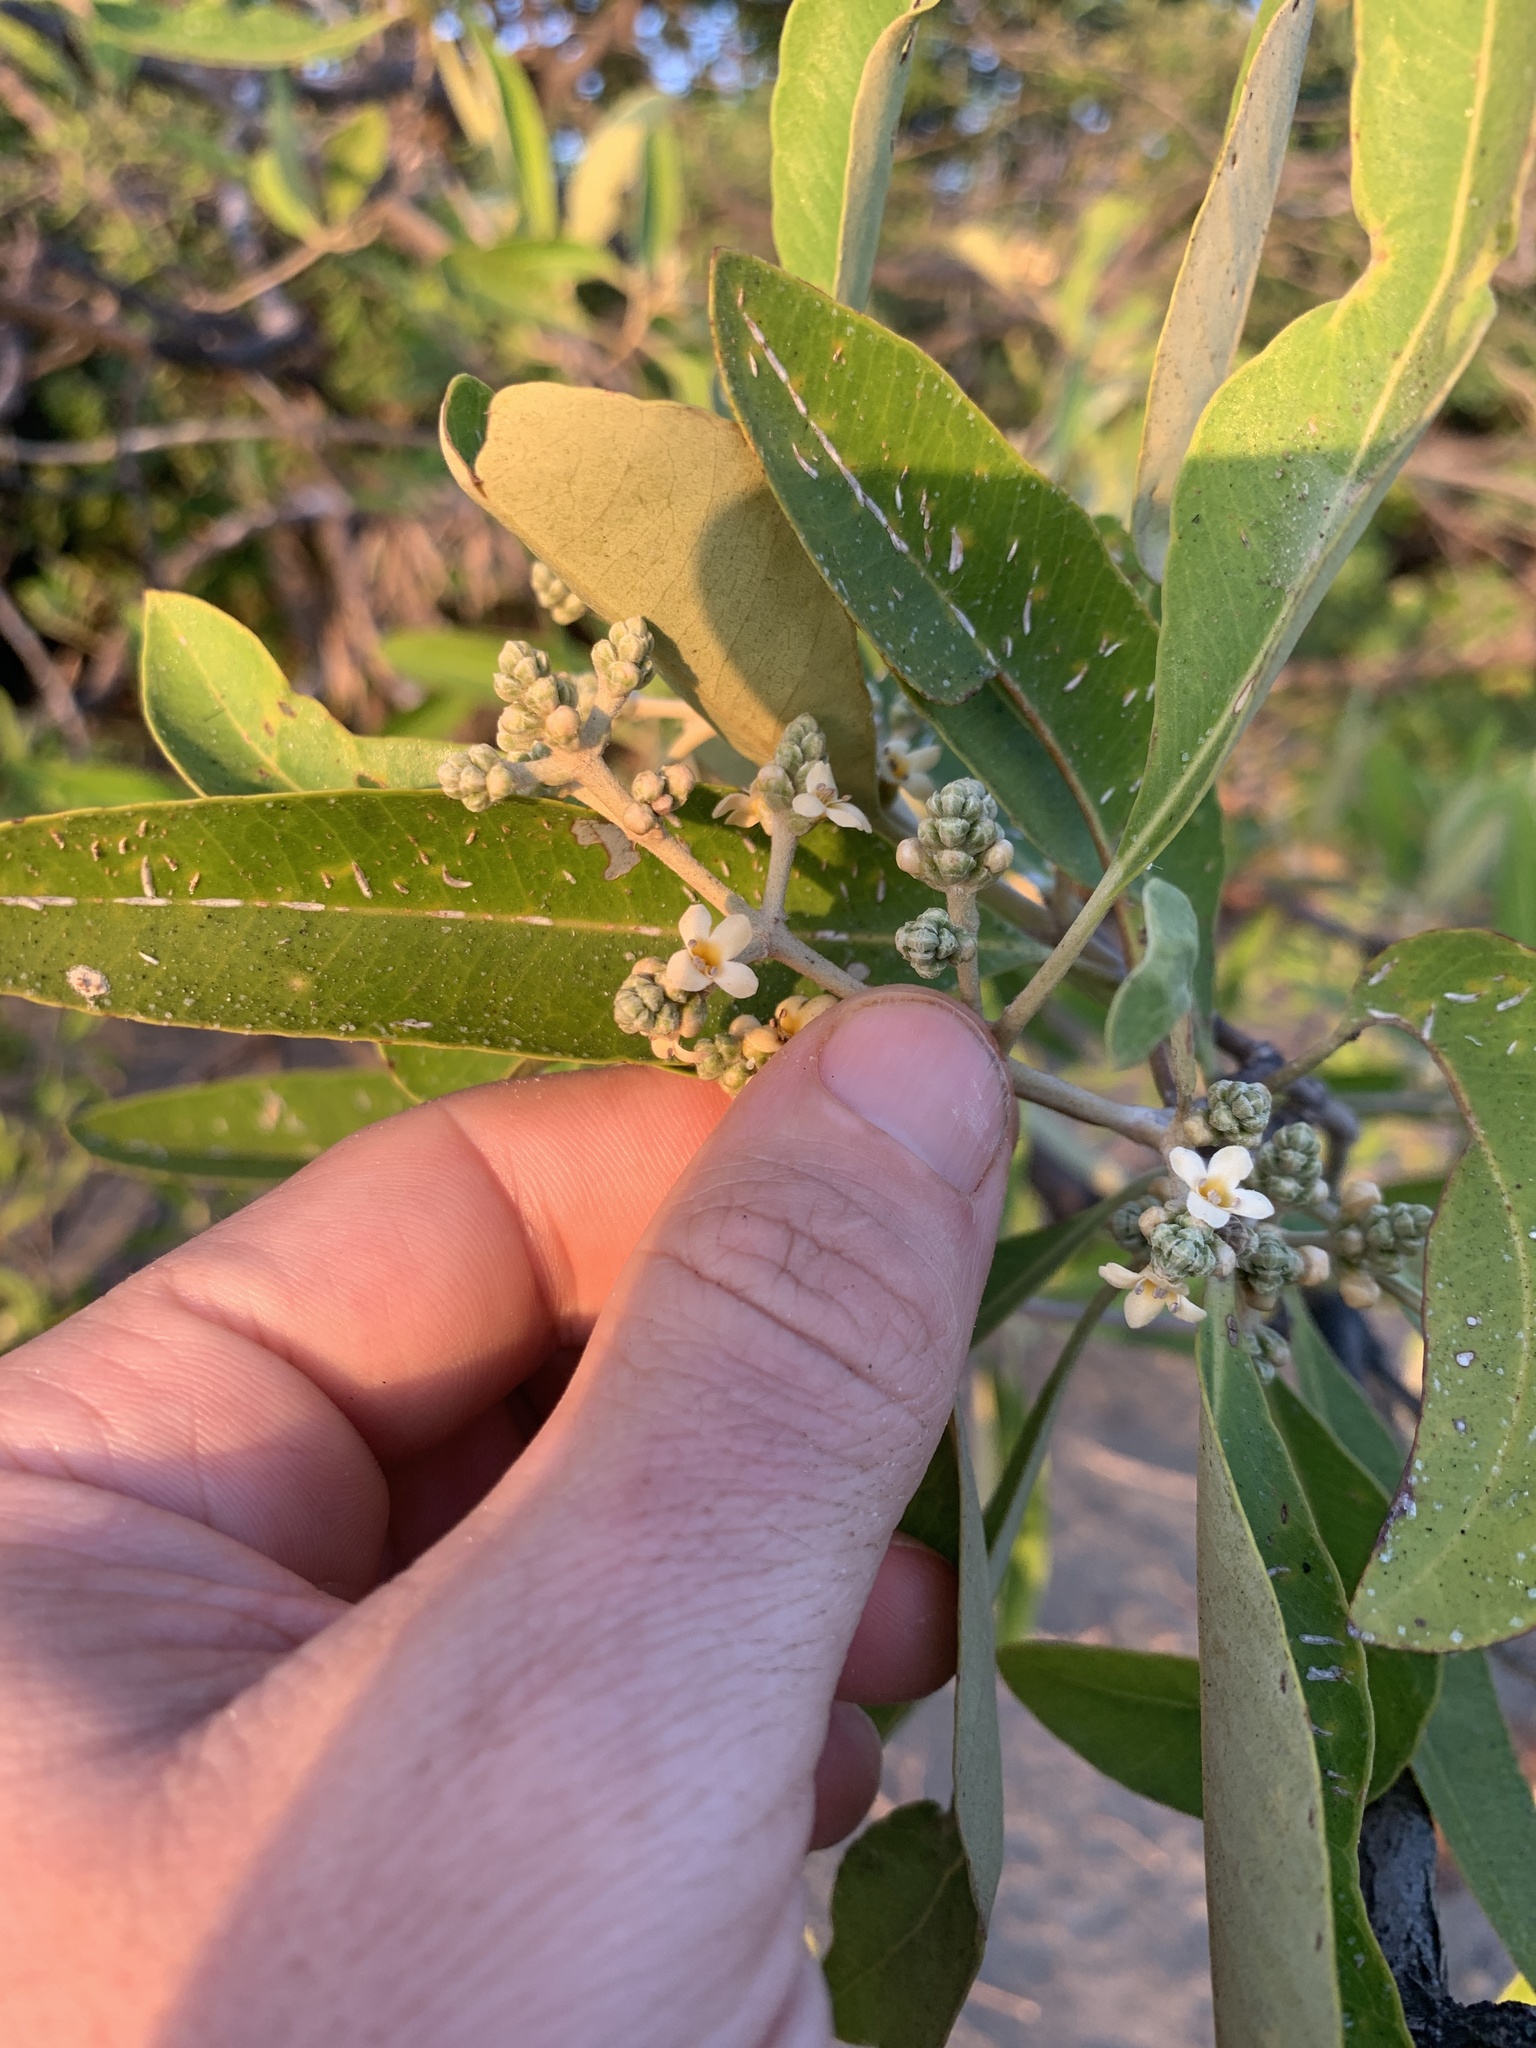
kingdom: Plantae
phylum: Tracheophyta
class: Magnoliopsida
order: Lamiales
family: Acanthaceae
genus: Avicennia
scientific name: Avicennia germinans
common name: Black mangrove
